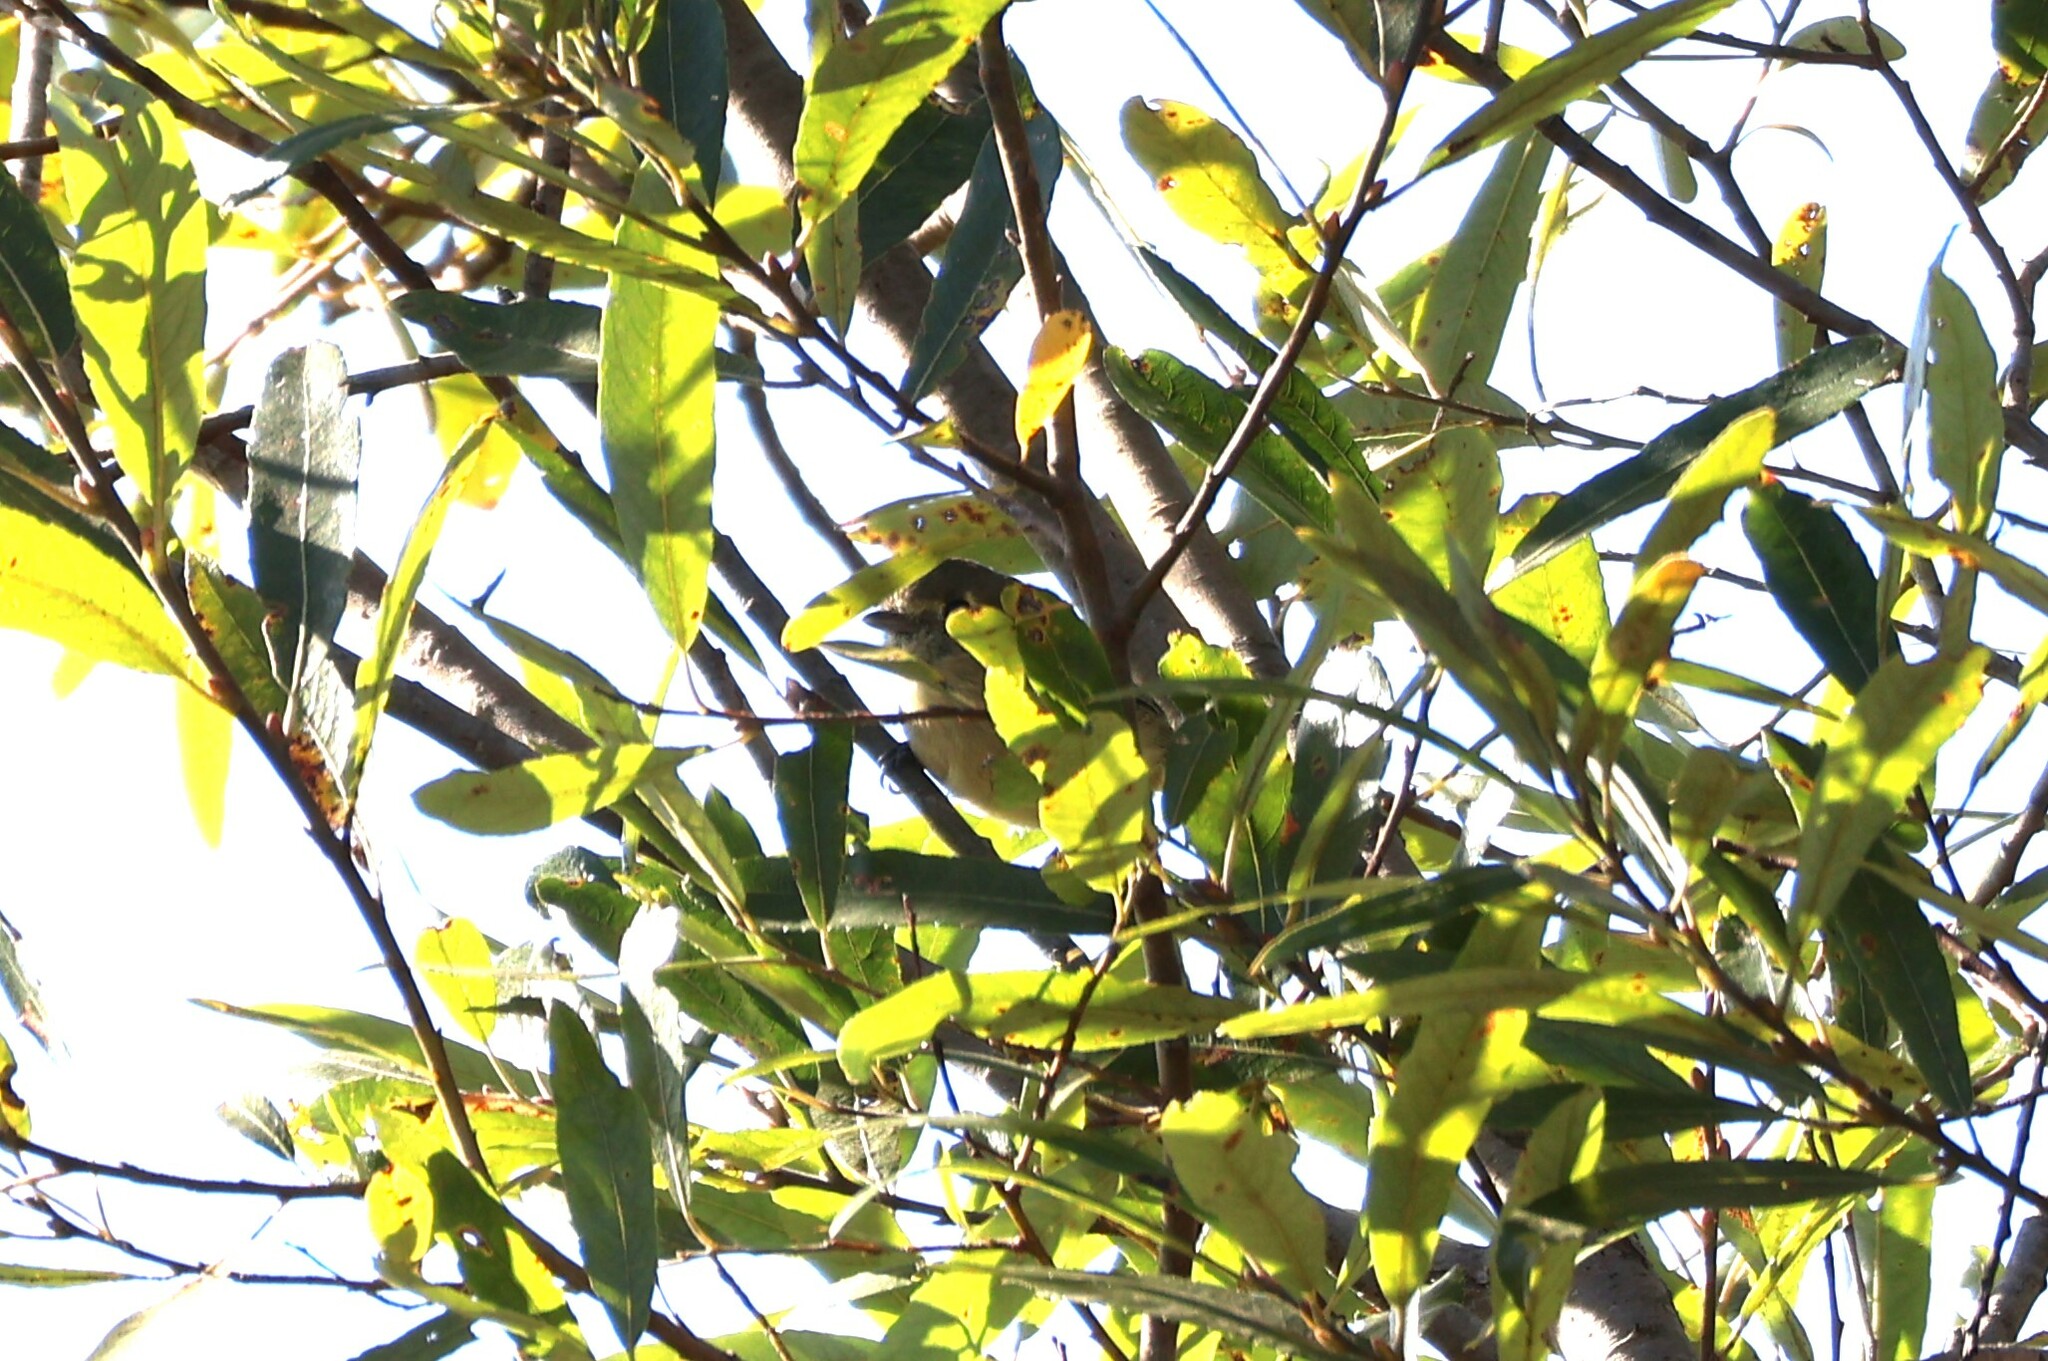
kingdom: Animalia
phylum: Chordata
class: Aves
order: Passeriformes
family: Vireonidae
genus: Vireo
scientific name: Vireo huttoni
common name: Hutton's vireo
